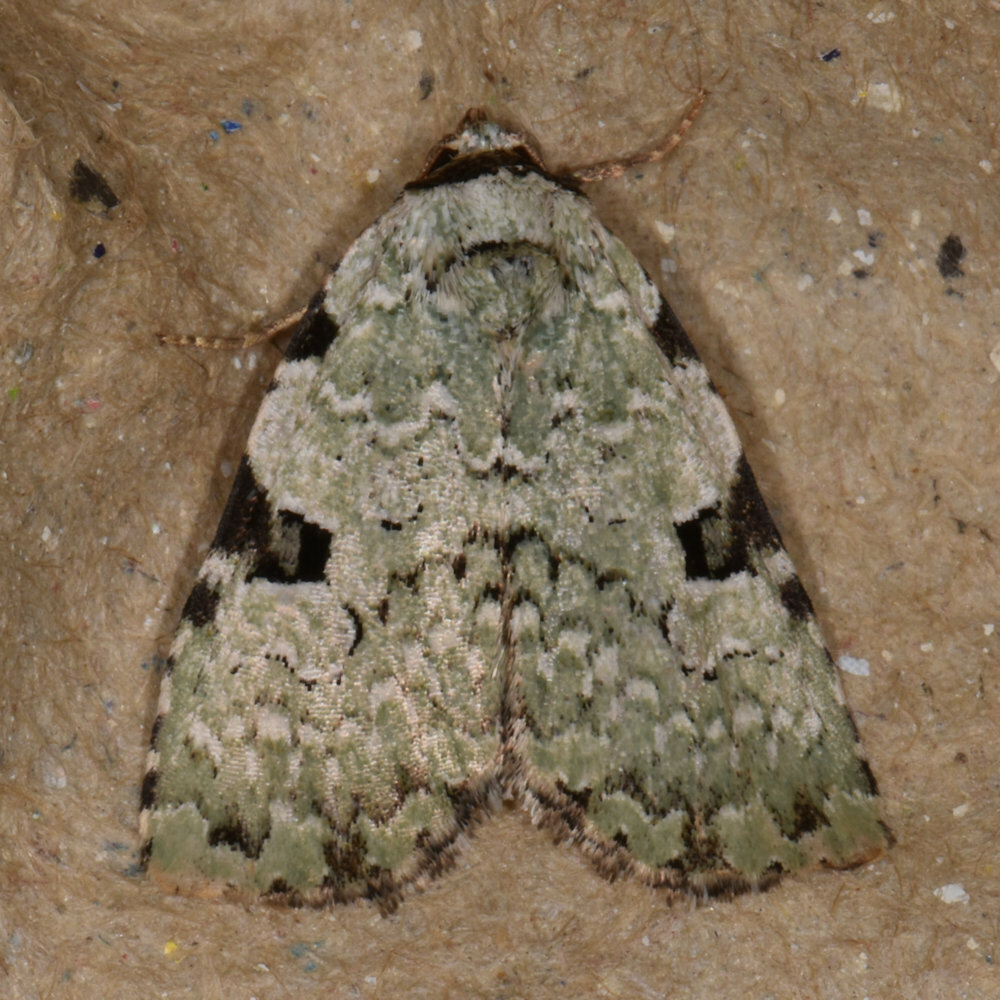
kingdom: Animalia
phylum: Arthropoda
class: Insecta
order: Lepidoptera
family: Noctuidae
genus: Leuconycta
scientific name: Leuconycta diphteroides
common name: Green leuconycta moth
